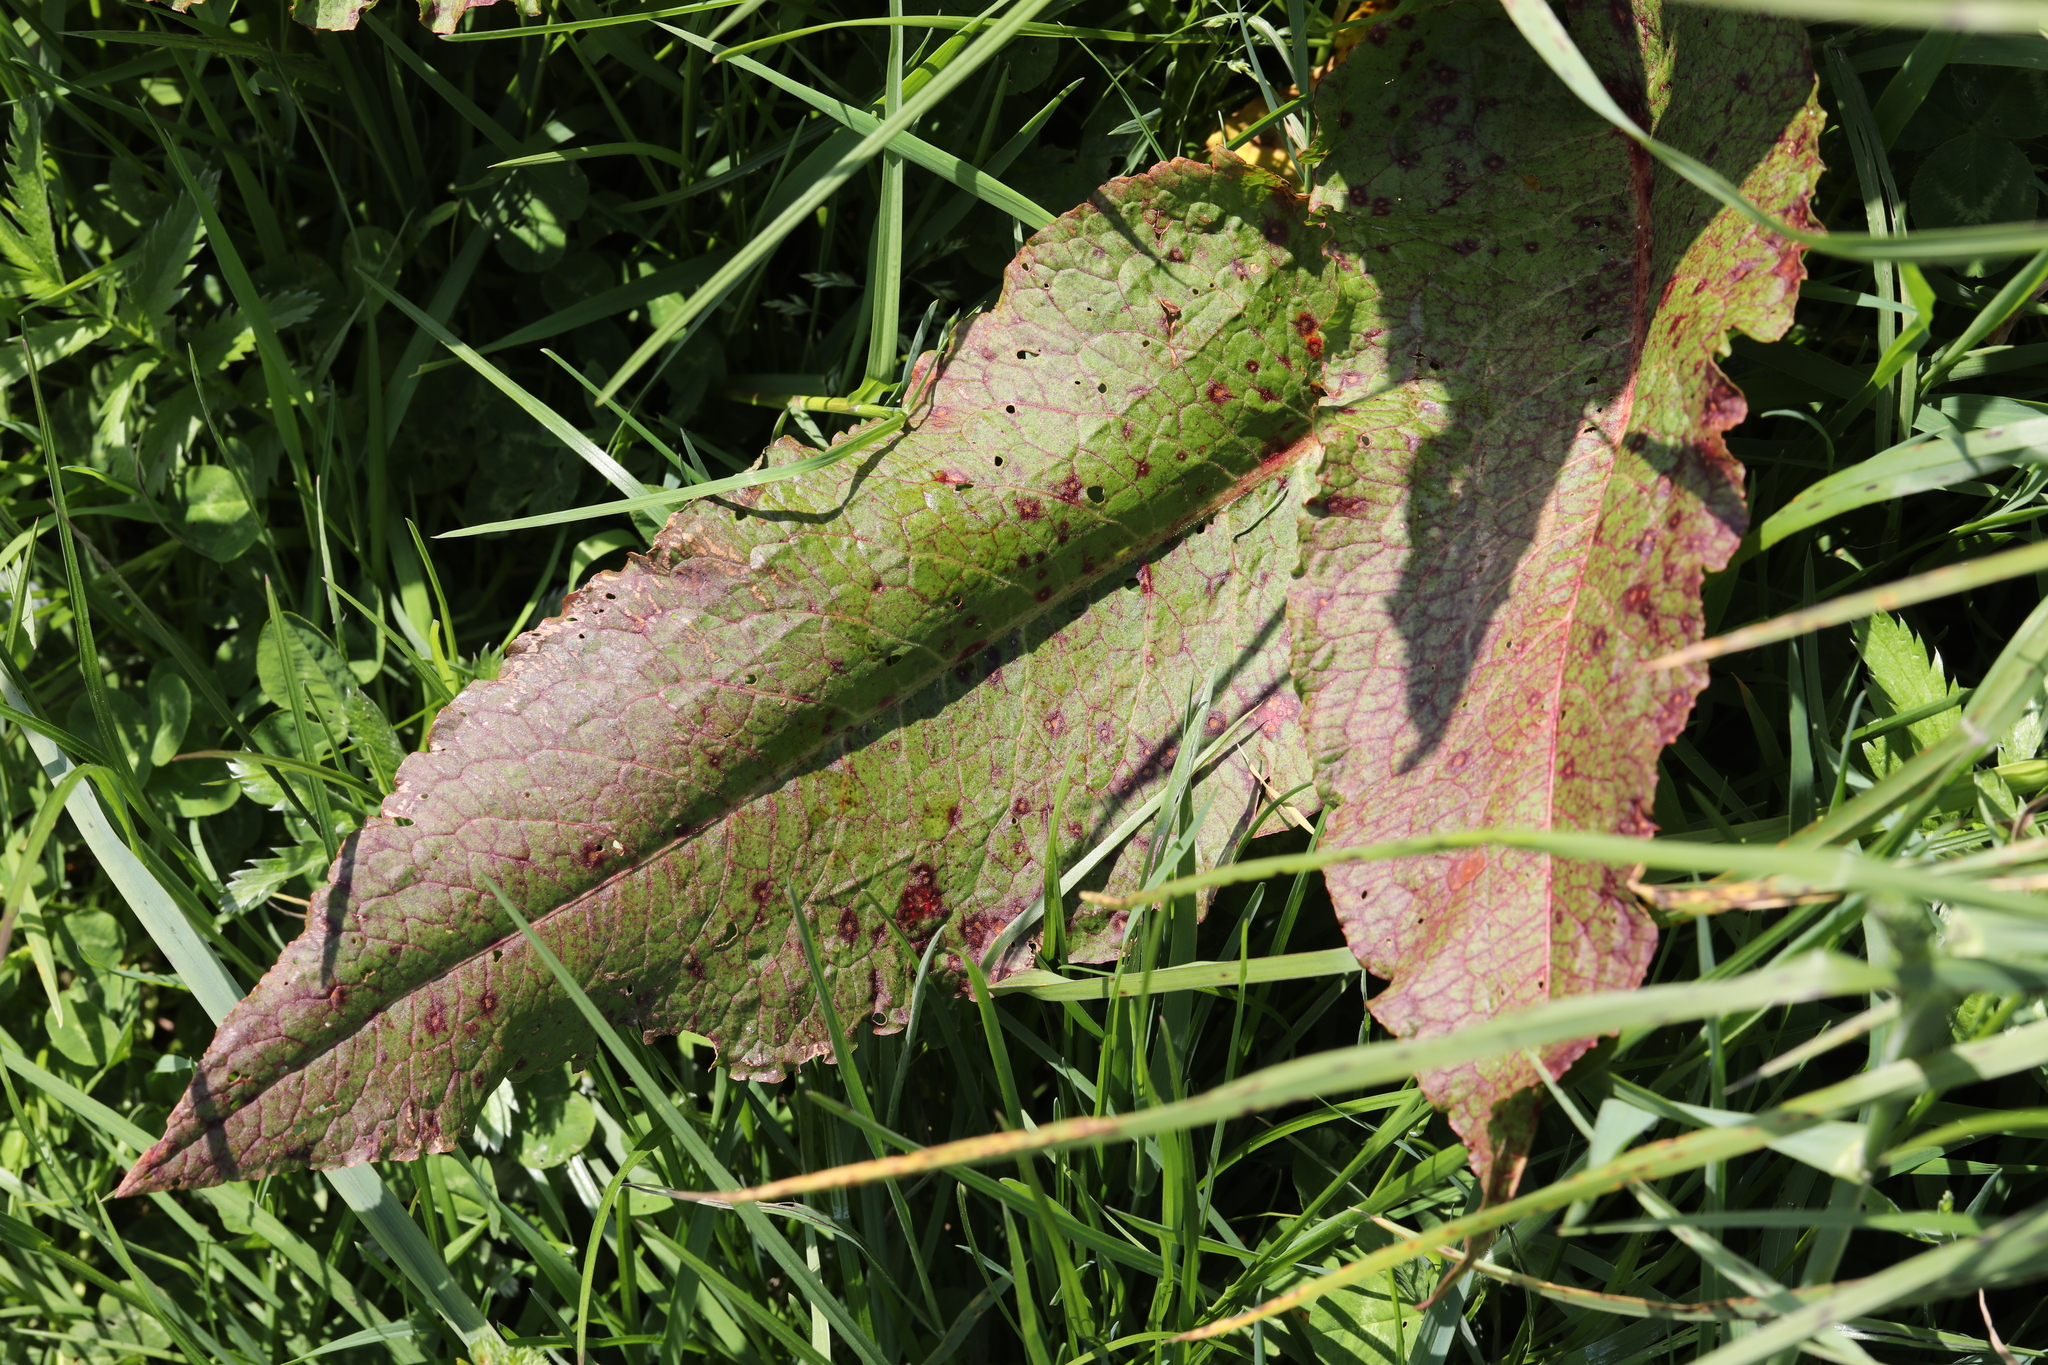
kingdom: Plantae
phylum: Tracheophyta
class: Magnoliopsida
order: Caryophyllales
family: Polygonaceae
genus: Rumex
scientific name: Rumex obtusifolius
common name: Bitter dock
